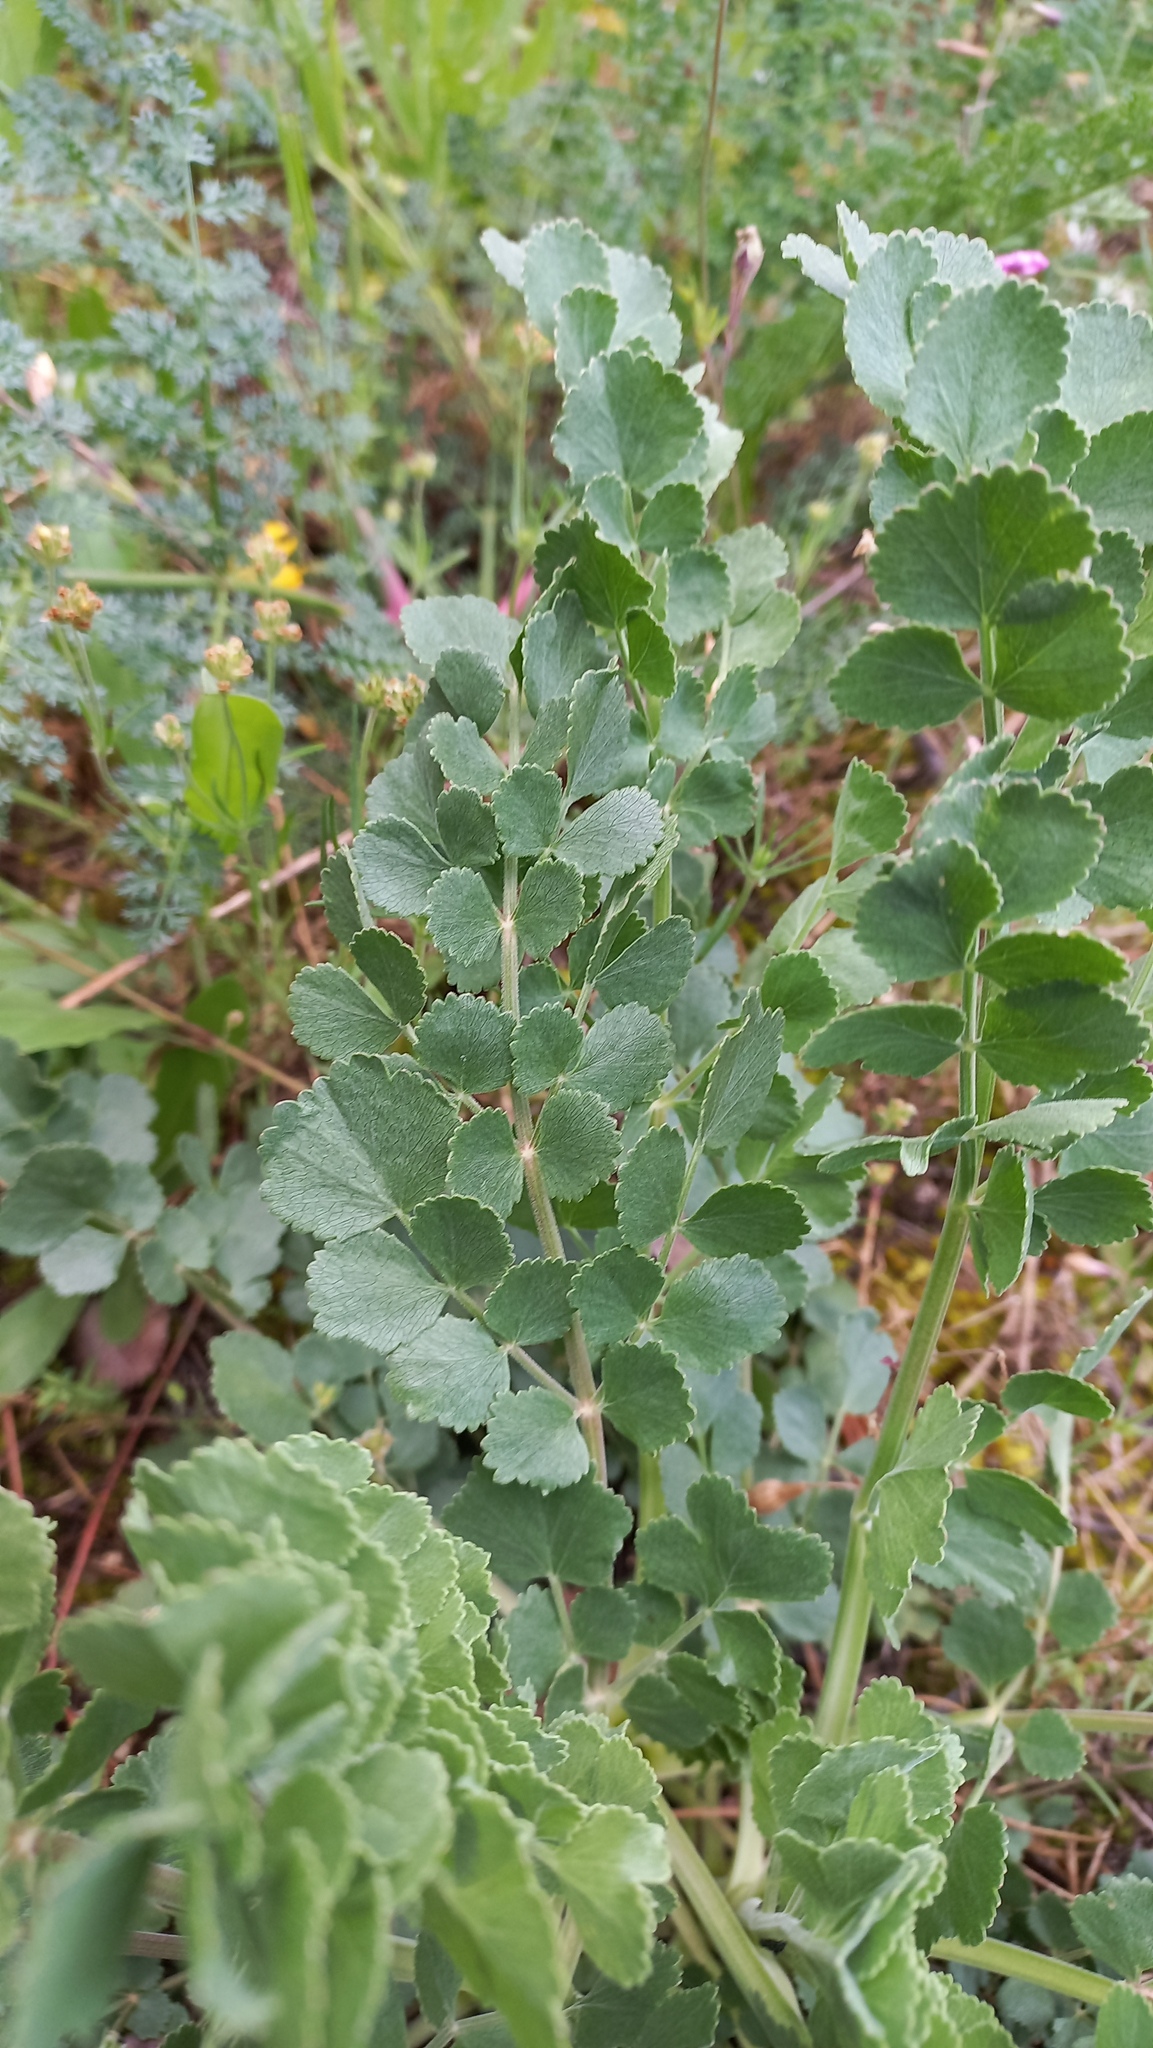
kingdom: Plantae
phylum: Tracheophyta
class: Magnoliopsida
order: Apiales
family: Apiaceae
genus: Pimpinella
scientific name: Pimpinella villosa
